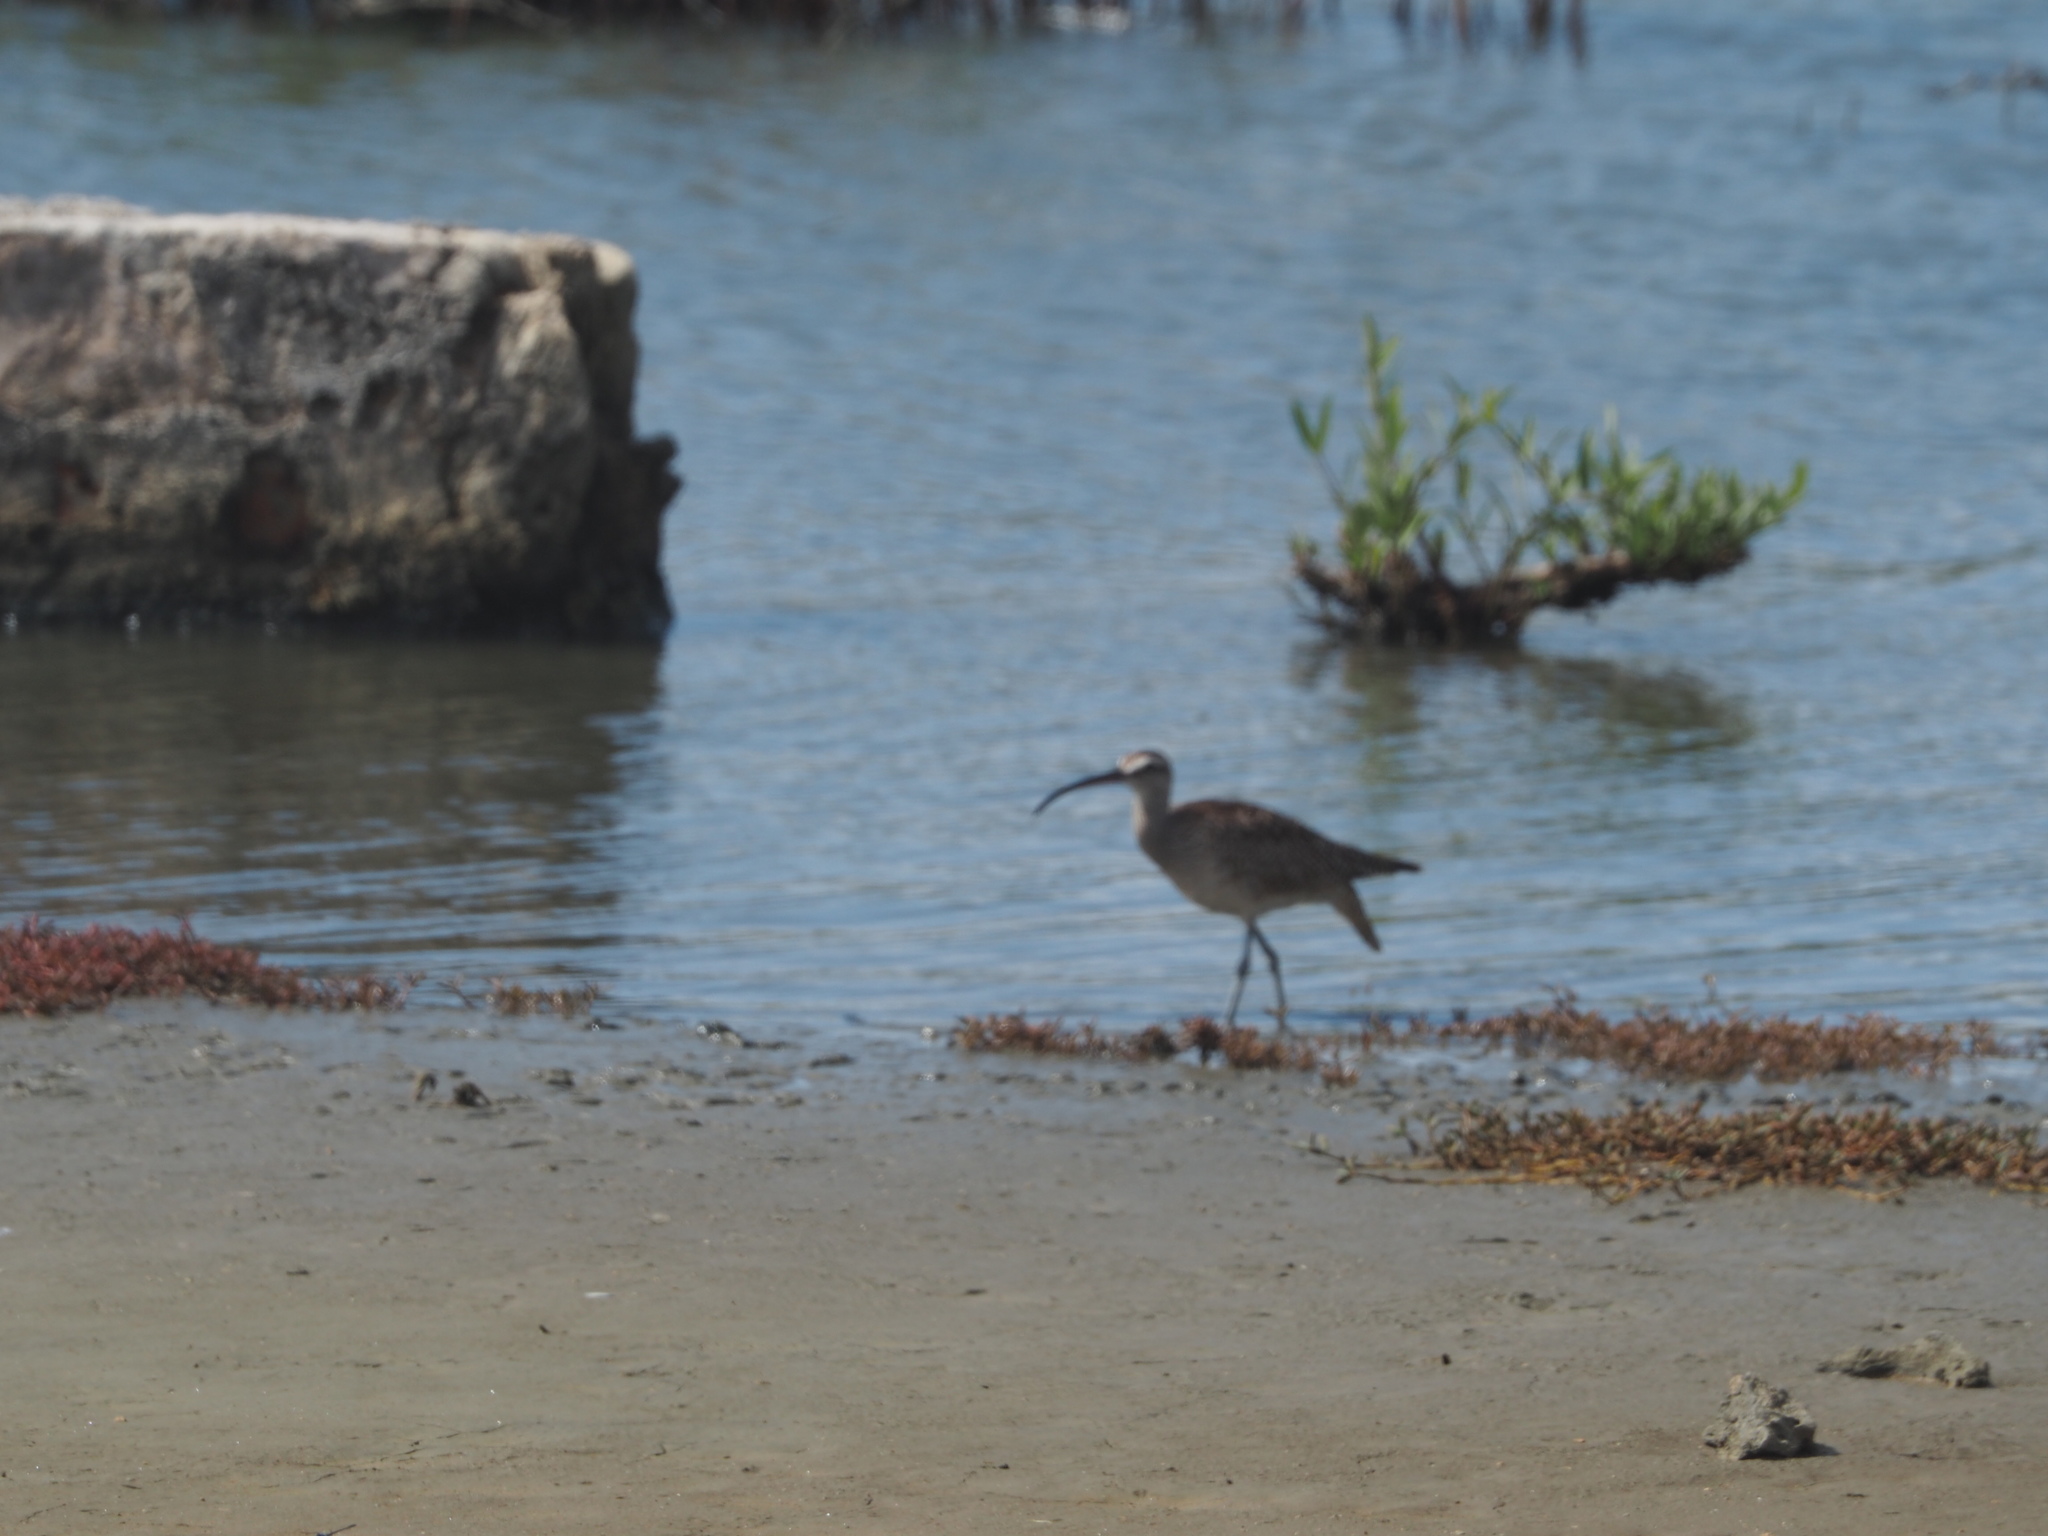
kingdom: Animalia
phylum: Chordata
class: Aves
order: Charadriiformes
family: Scolopacidae
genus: Numenius
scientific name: Numenius phaeopus
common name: Whimbrel
